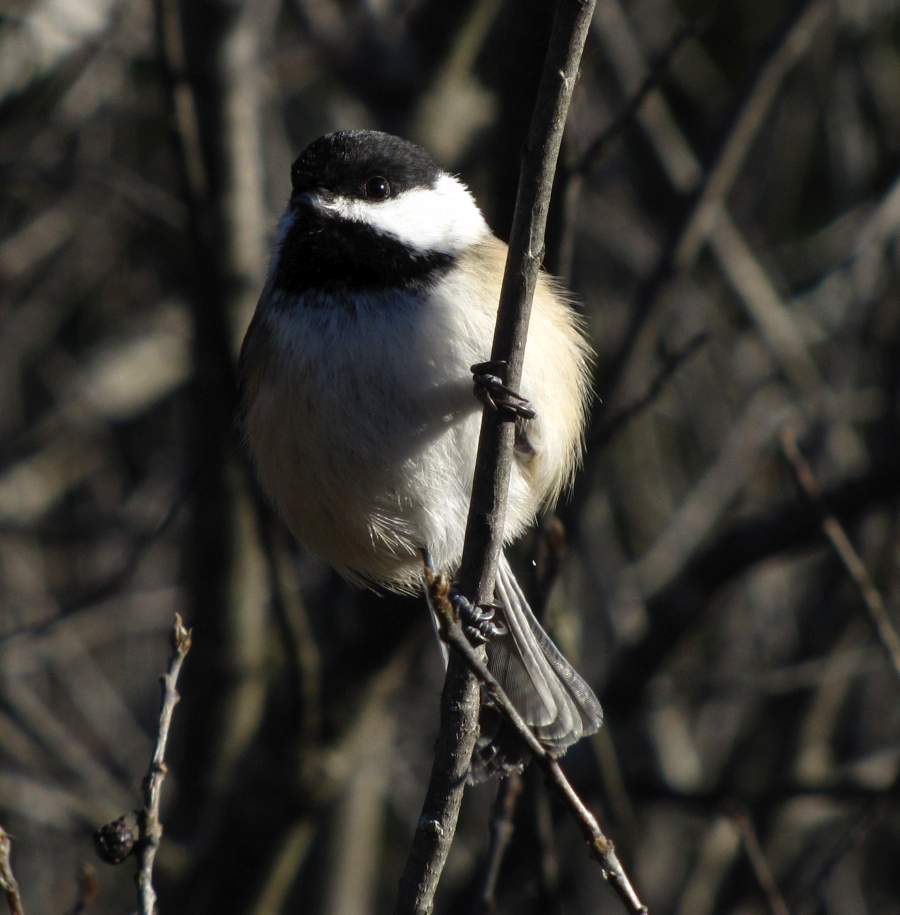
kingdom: Animalia
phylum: Chordata
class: Aves
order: Passeriformes
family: Paridae
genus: Poecile
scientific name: Poecile atricapillus
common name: Black-capped chickadee
